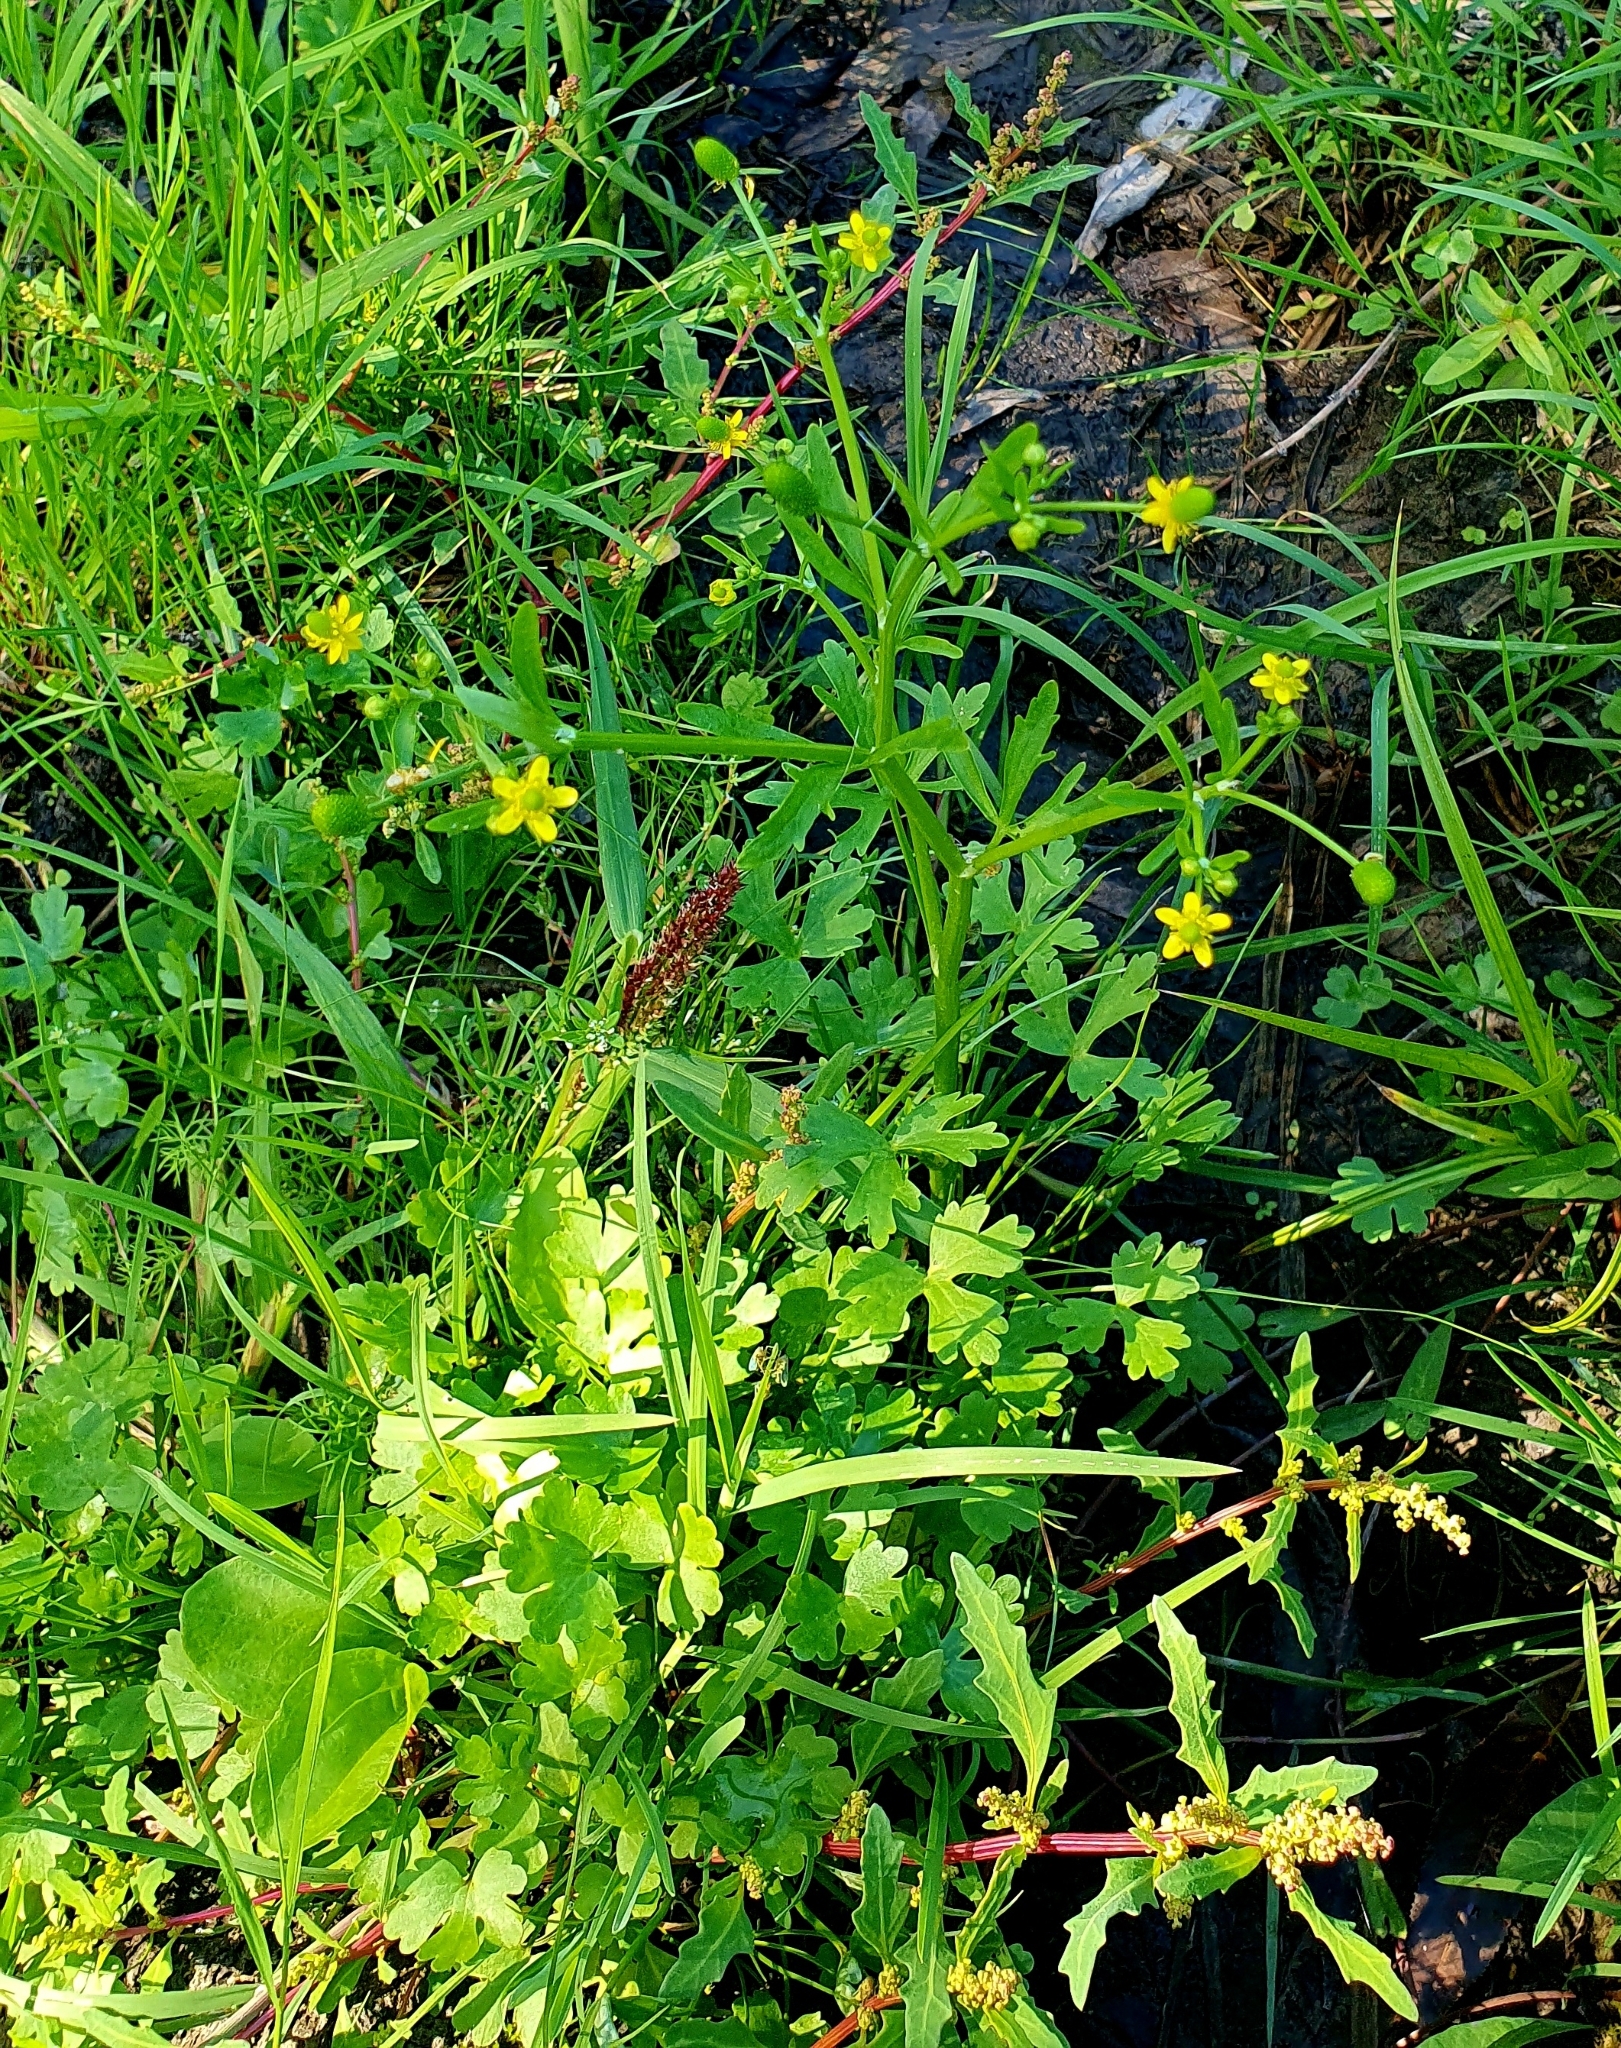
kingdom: Plantae
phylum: Tracheophyta
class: Magnoliopsida
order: Ranunculales
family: Ranunculaceae
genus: Ranunculus
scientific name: Ranunculus sceleratus
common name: Celery-leaved buttercup
